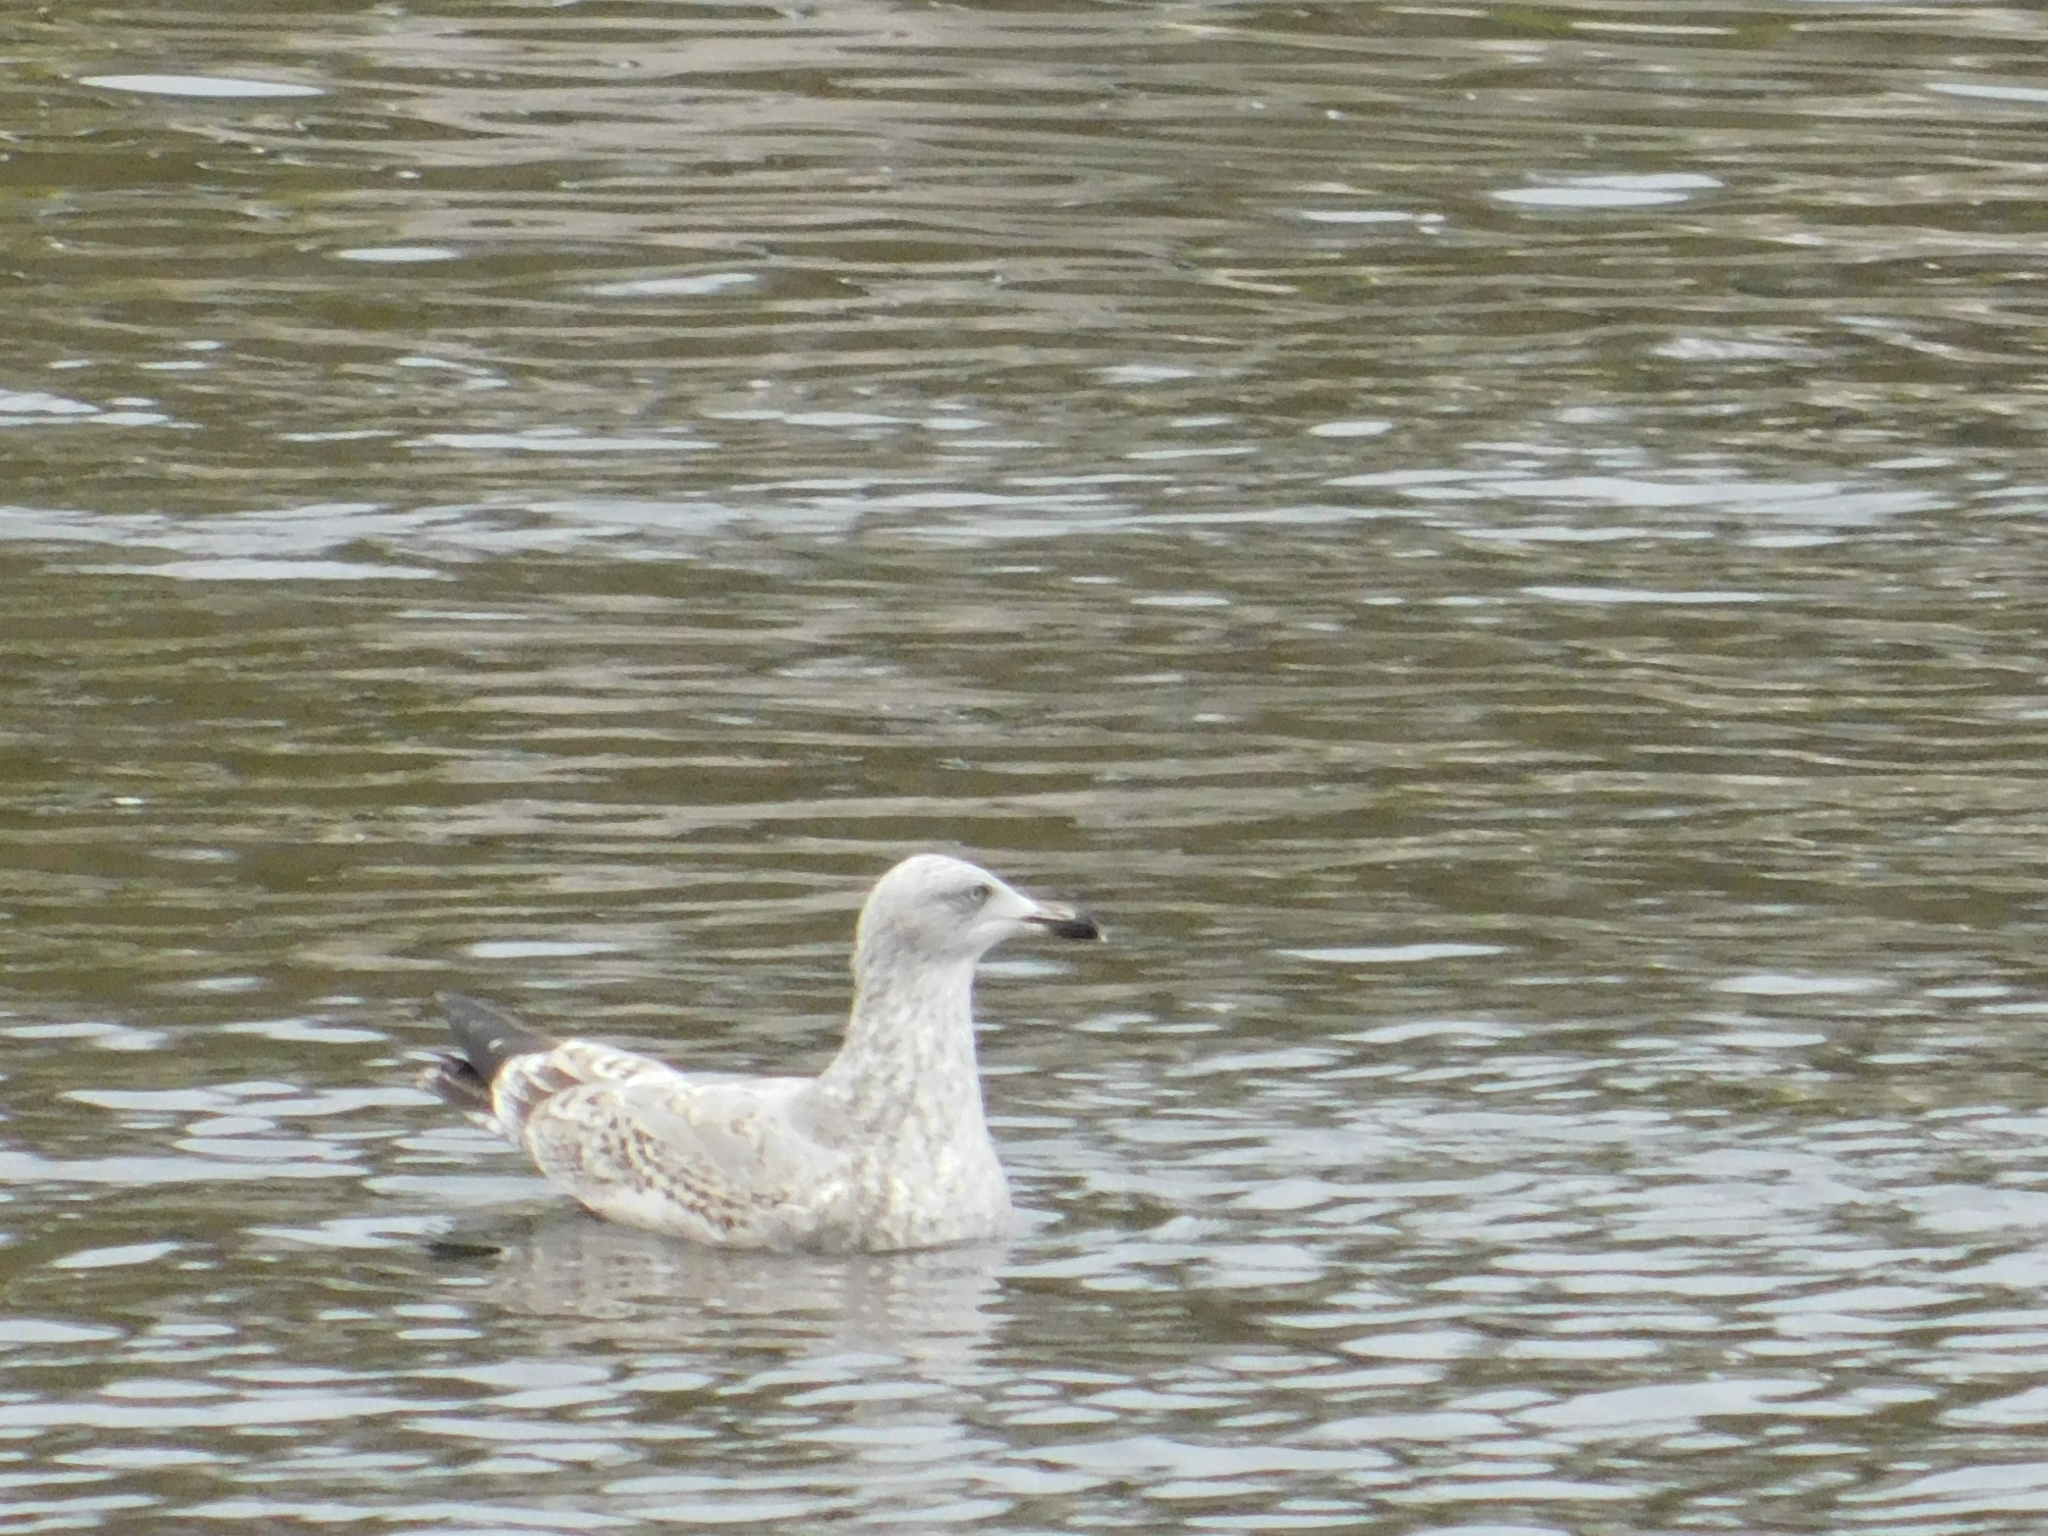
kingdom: Animalia
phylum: Chordata
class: Aves
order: Charadriiformes
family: Laridae
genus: Larus
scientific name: Larus argentatus
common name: Herring gull
